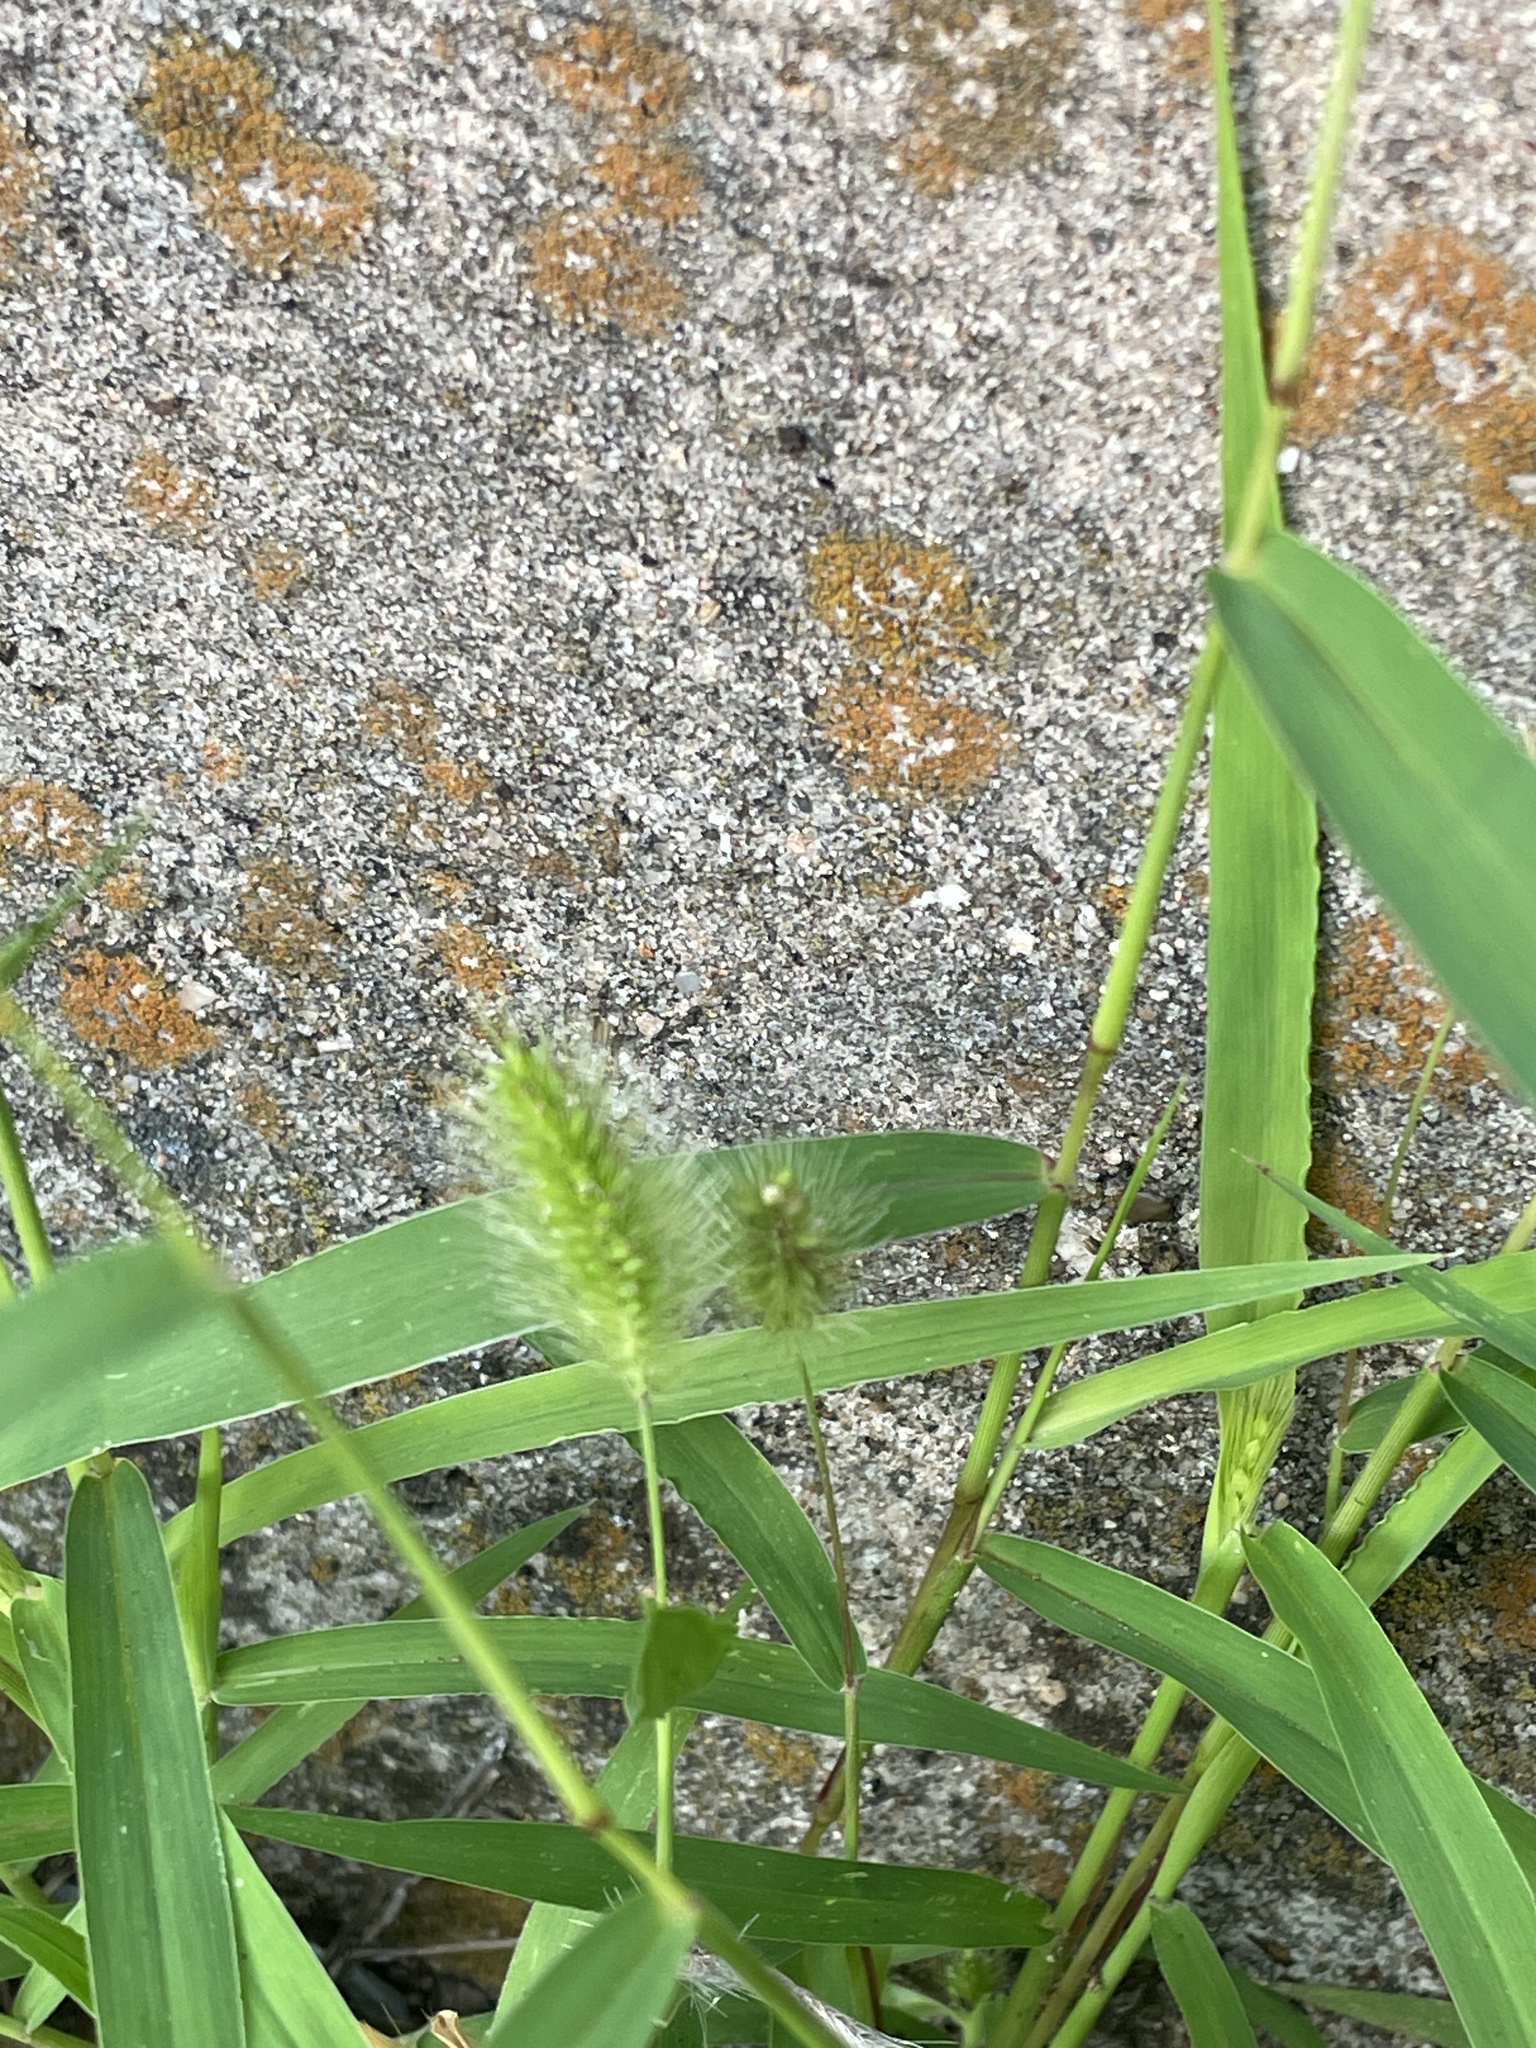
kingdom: Plantae
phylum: Tracheophyta
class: Liliopsida
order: Poales
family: Poaceae
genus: Setaria
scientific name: Setaria viridis
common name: Green bristlegrass
